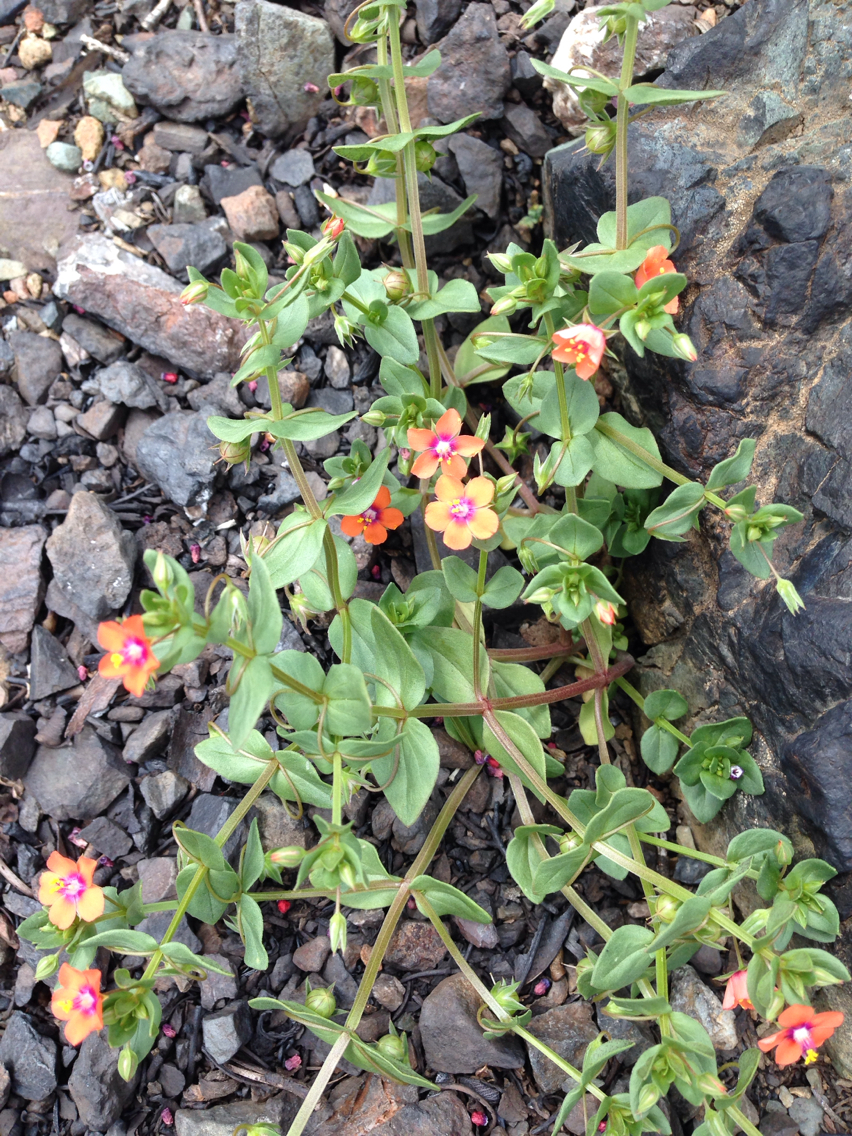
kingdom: Plantae
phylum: Tracheophyta
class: Magnoliopsida
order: Ericales
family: Primulaceae
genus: Lysimachia
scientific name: Lysimachia arvensis
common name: Scarlet pimpernel
